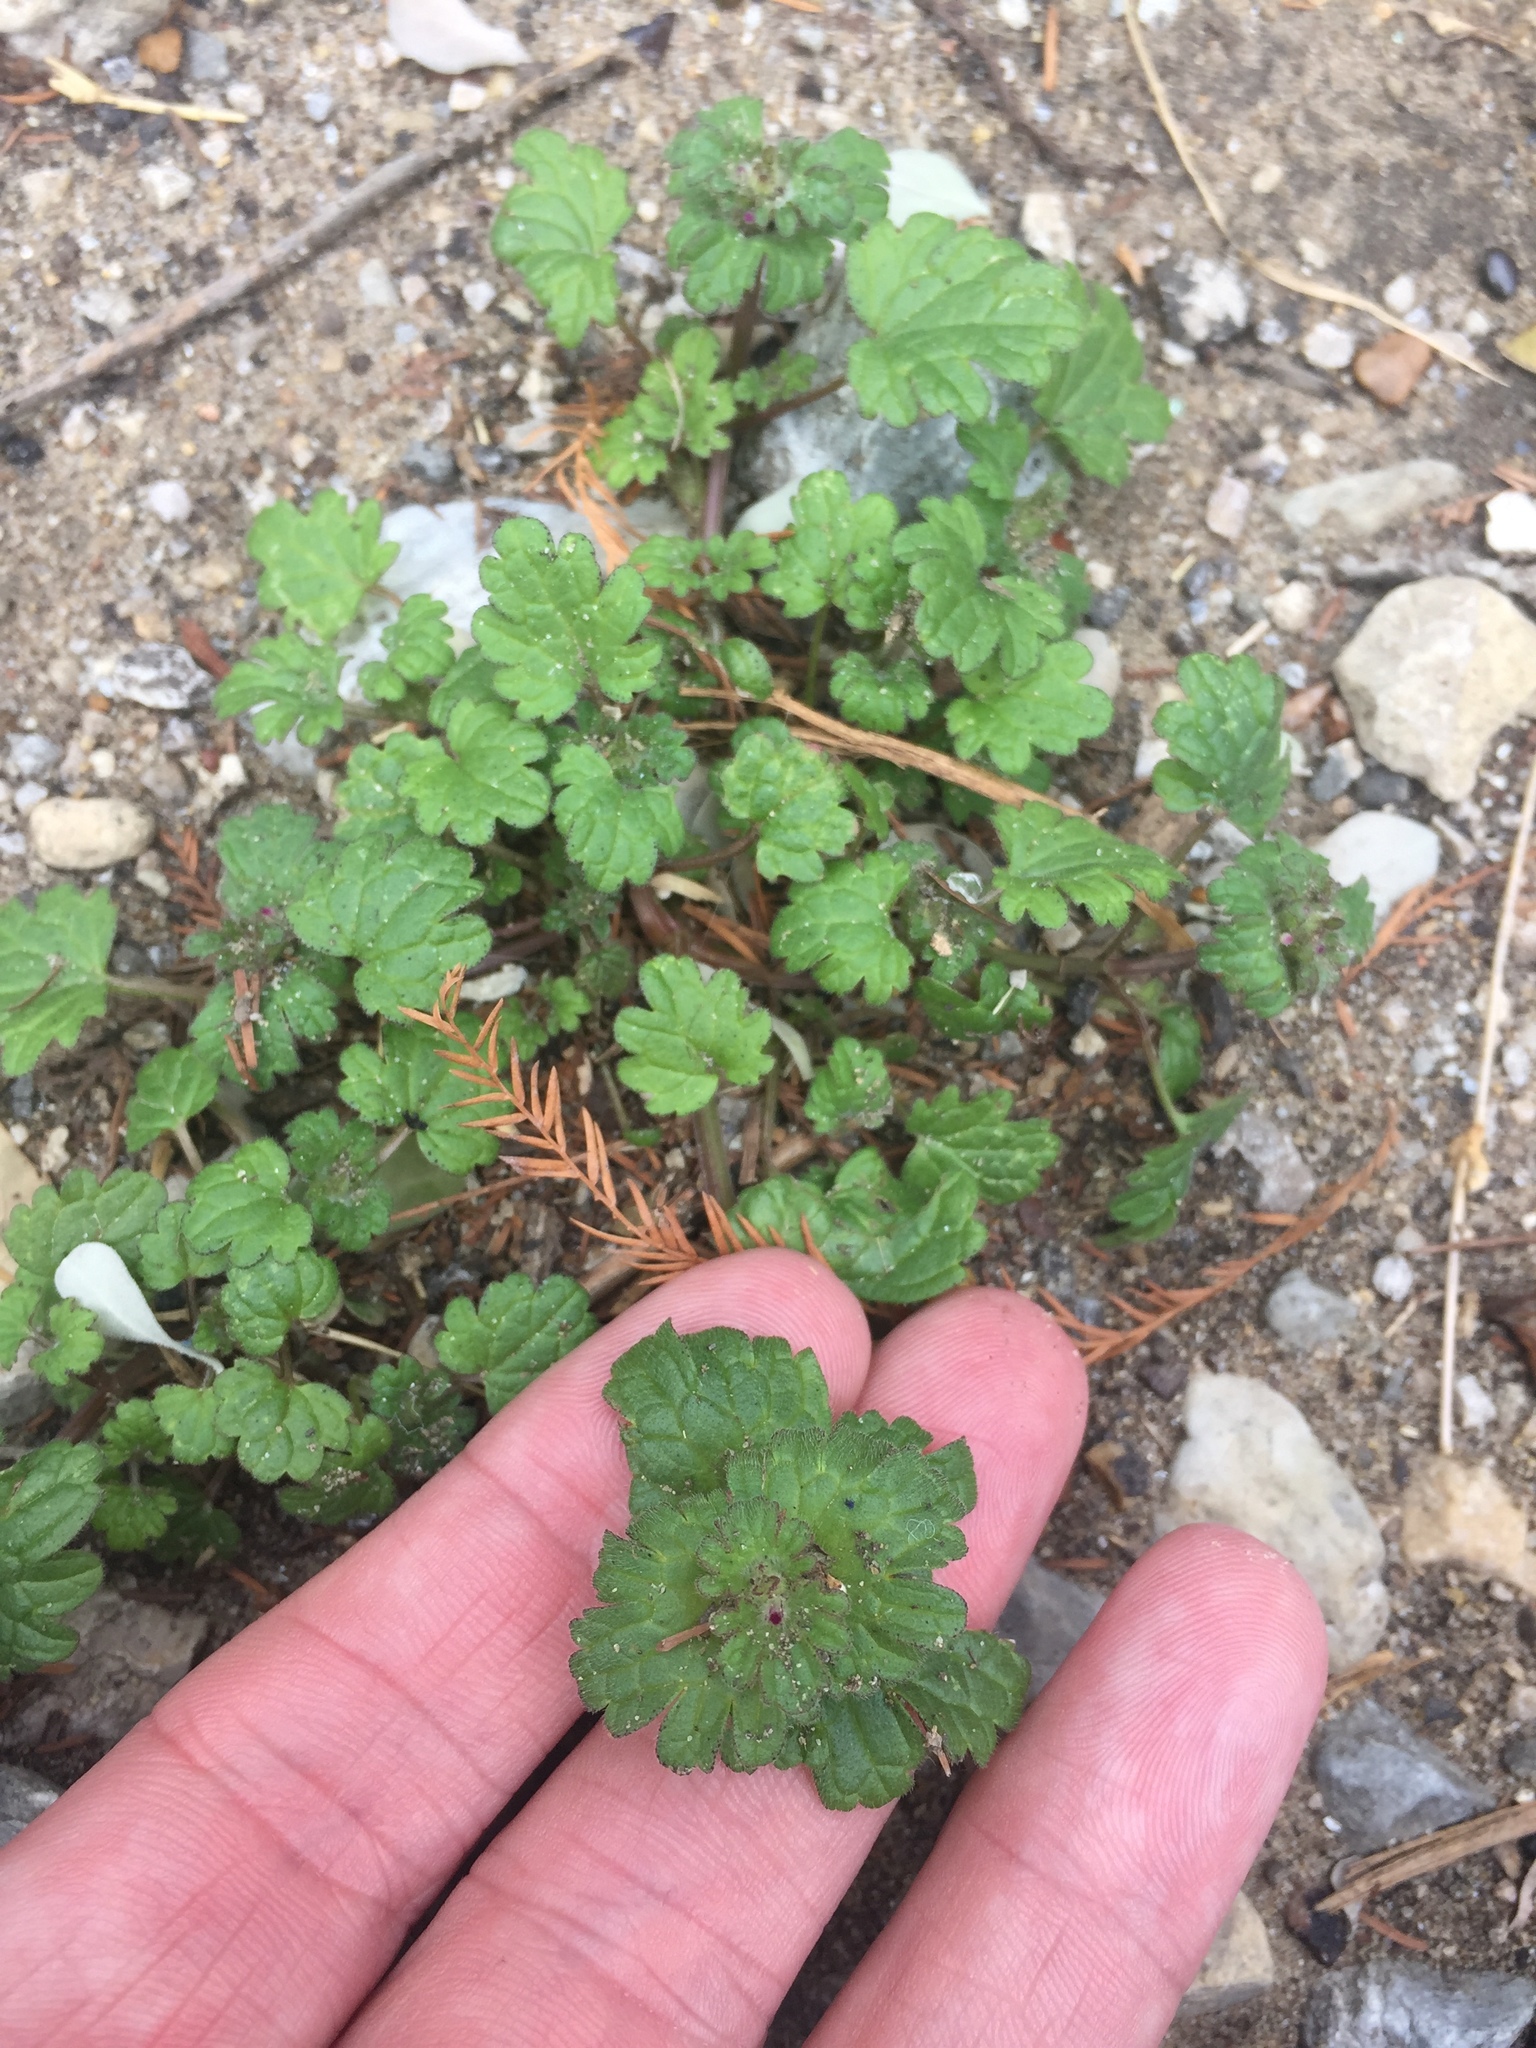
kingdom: Plantae
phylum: Tracheophyta
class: Magnoliopsida
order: Lamiales
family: Lamiaceae
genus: Lamium
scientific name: Lamium amplexicaule
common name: Henbit dead-nettle
